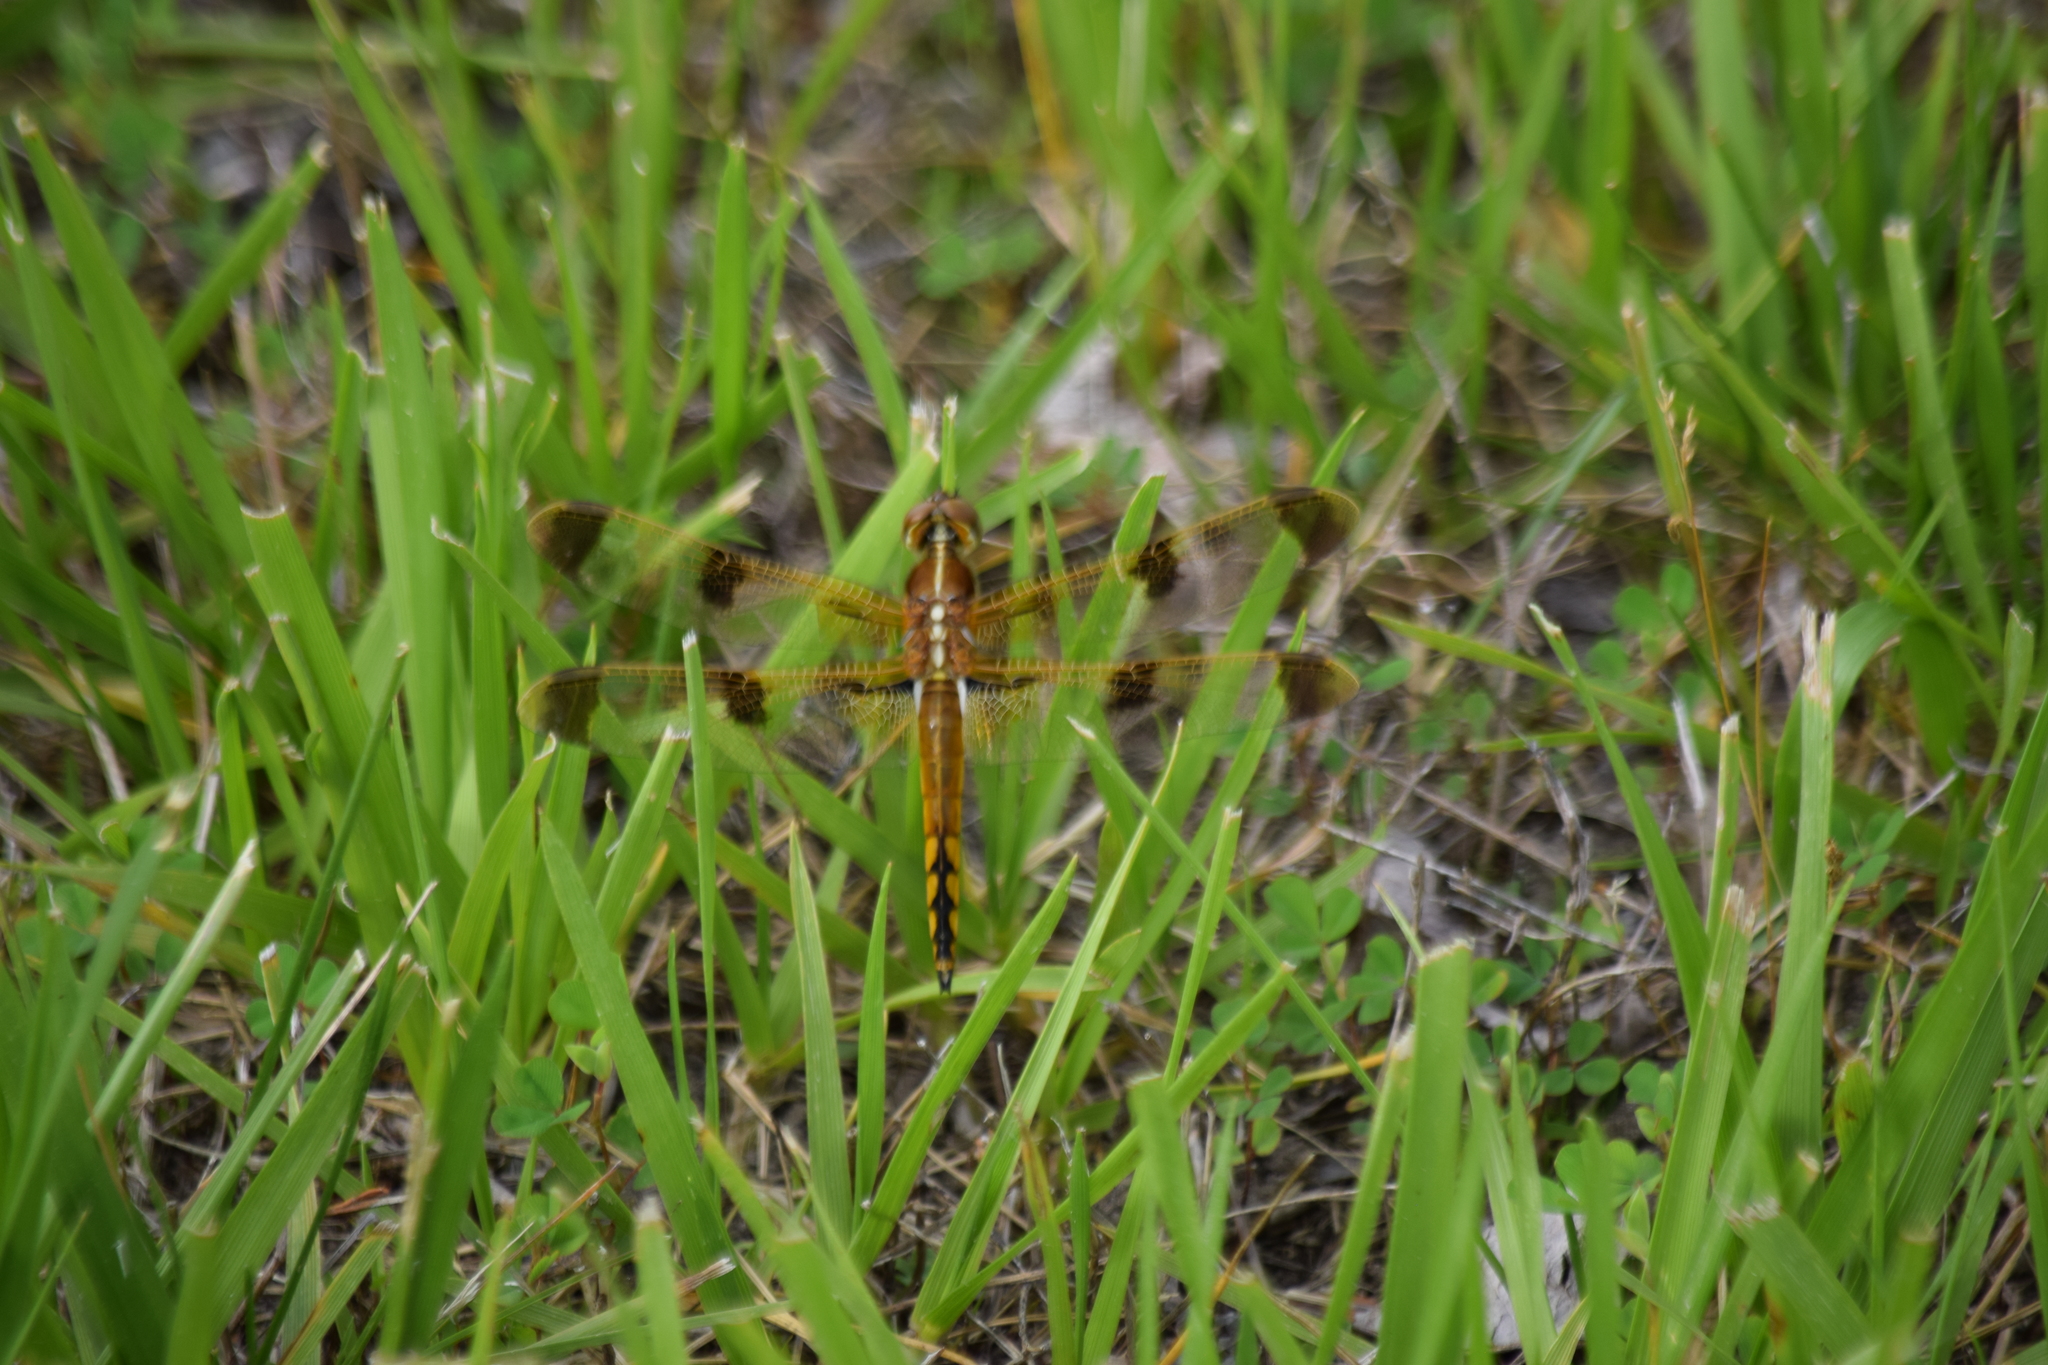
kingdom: Animalia
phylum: Arthropoda
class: Insecta
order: Odonata
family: Libellulidae
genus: Libellula
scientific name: Libellula semifasciata
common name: Painted skimmer
